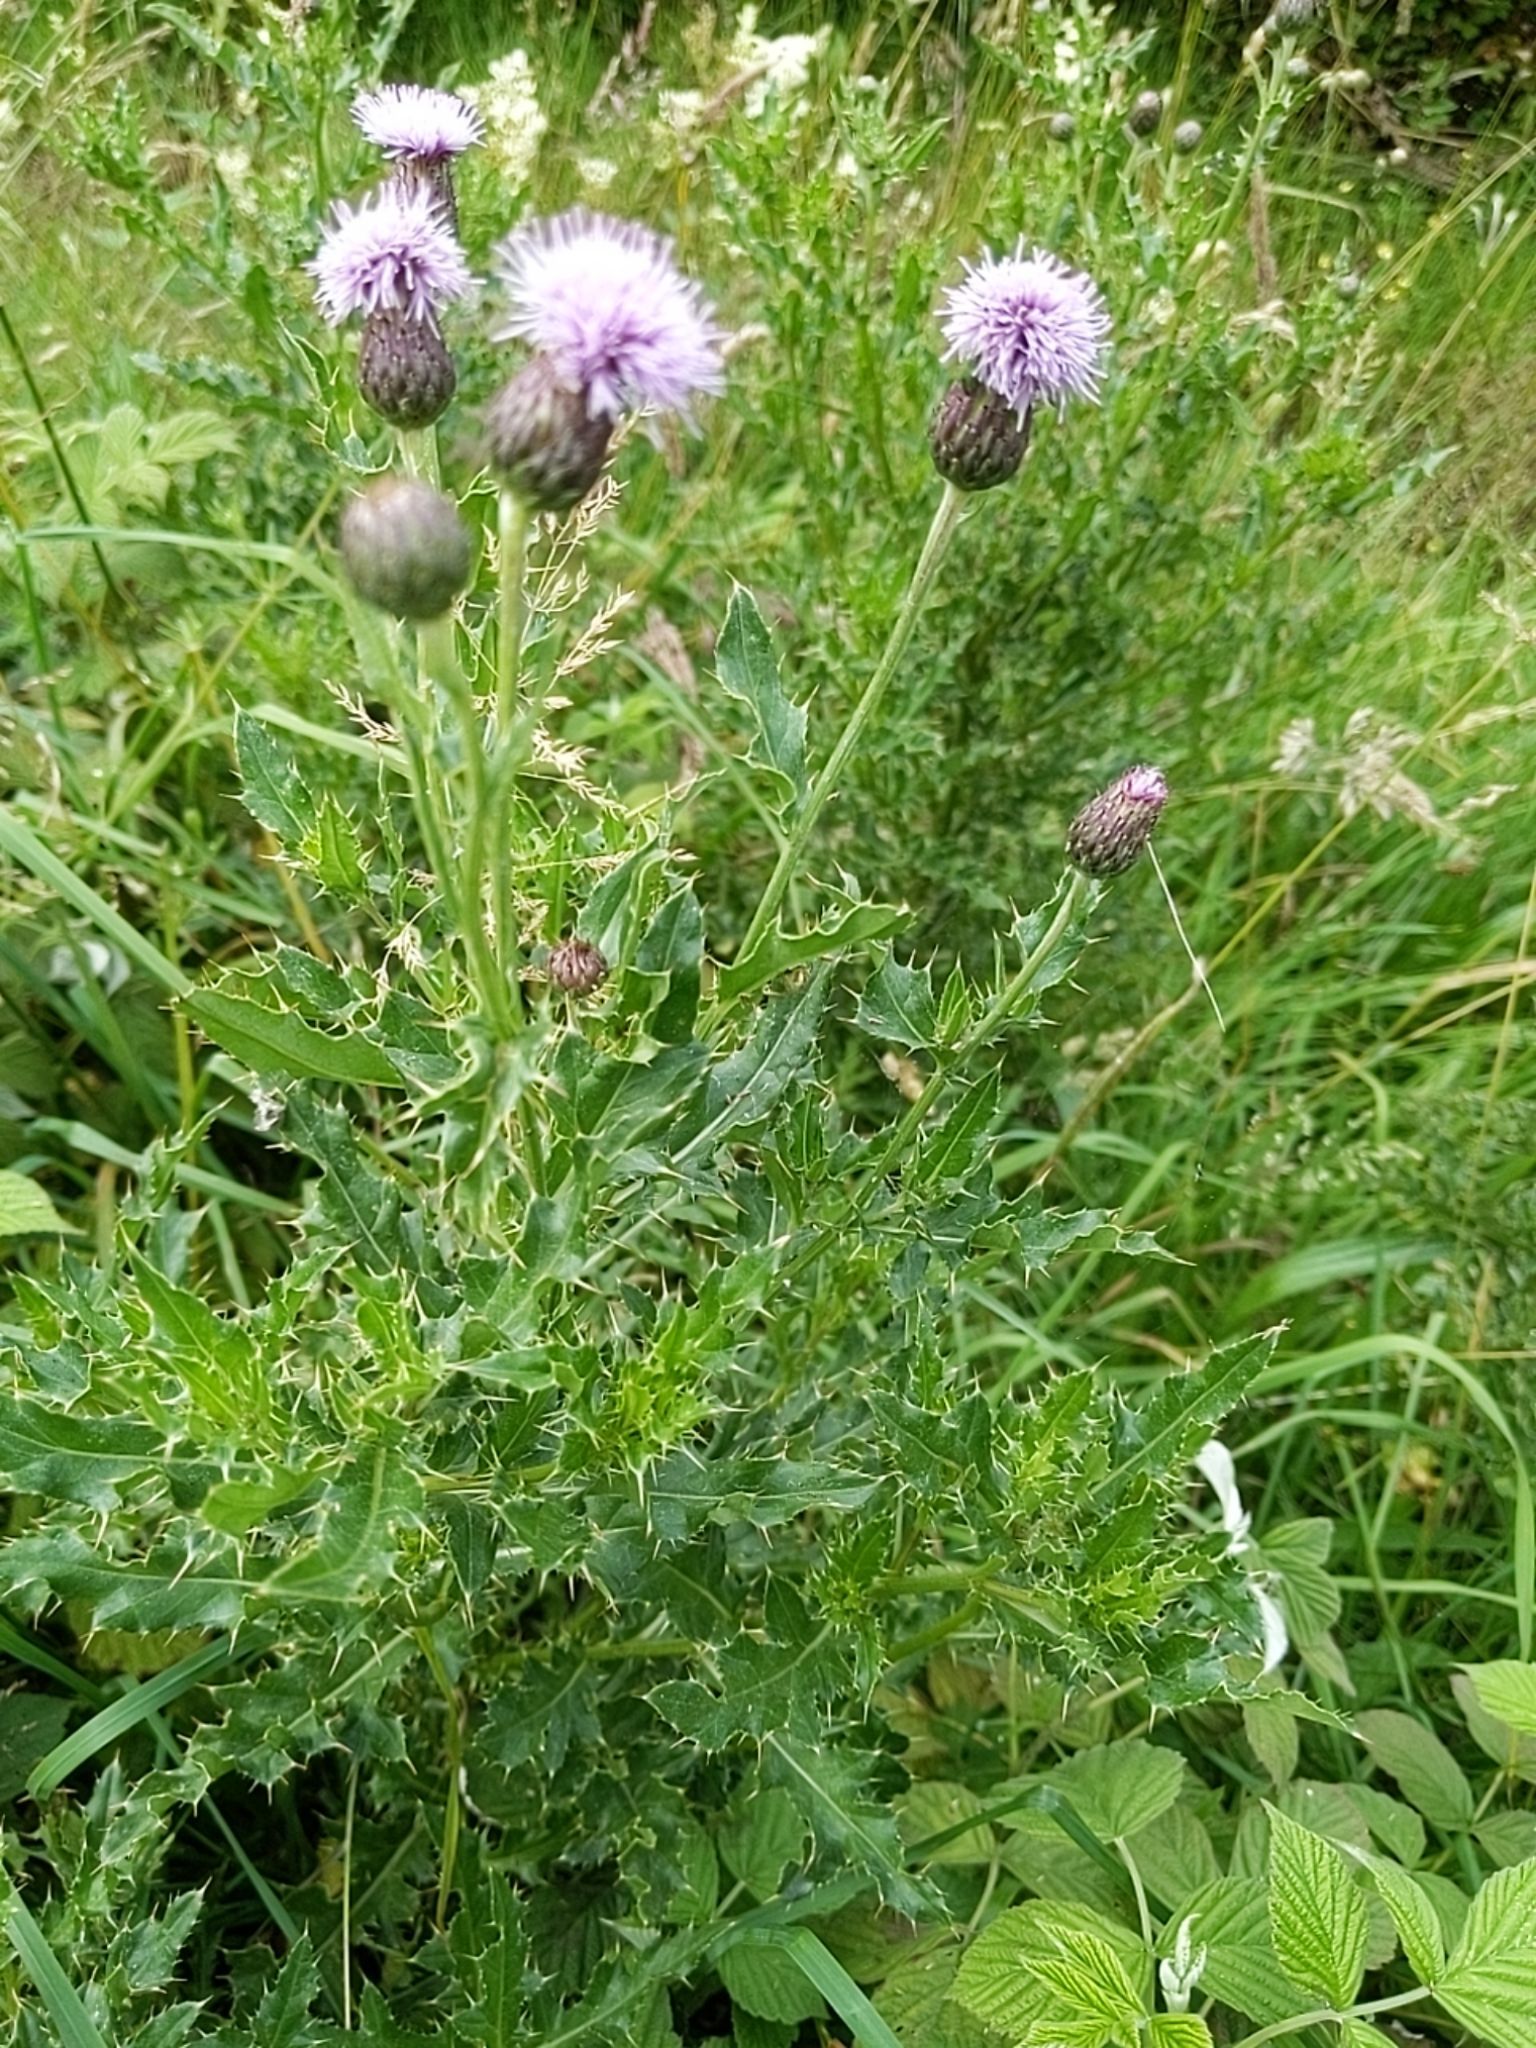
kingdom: Plantae
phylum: Tracheophyta
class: Magnoliopsida
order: Asterales
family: Asteraceae
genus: Cirsium
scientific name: Cirsium arvense
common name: Creeping thistle
